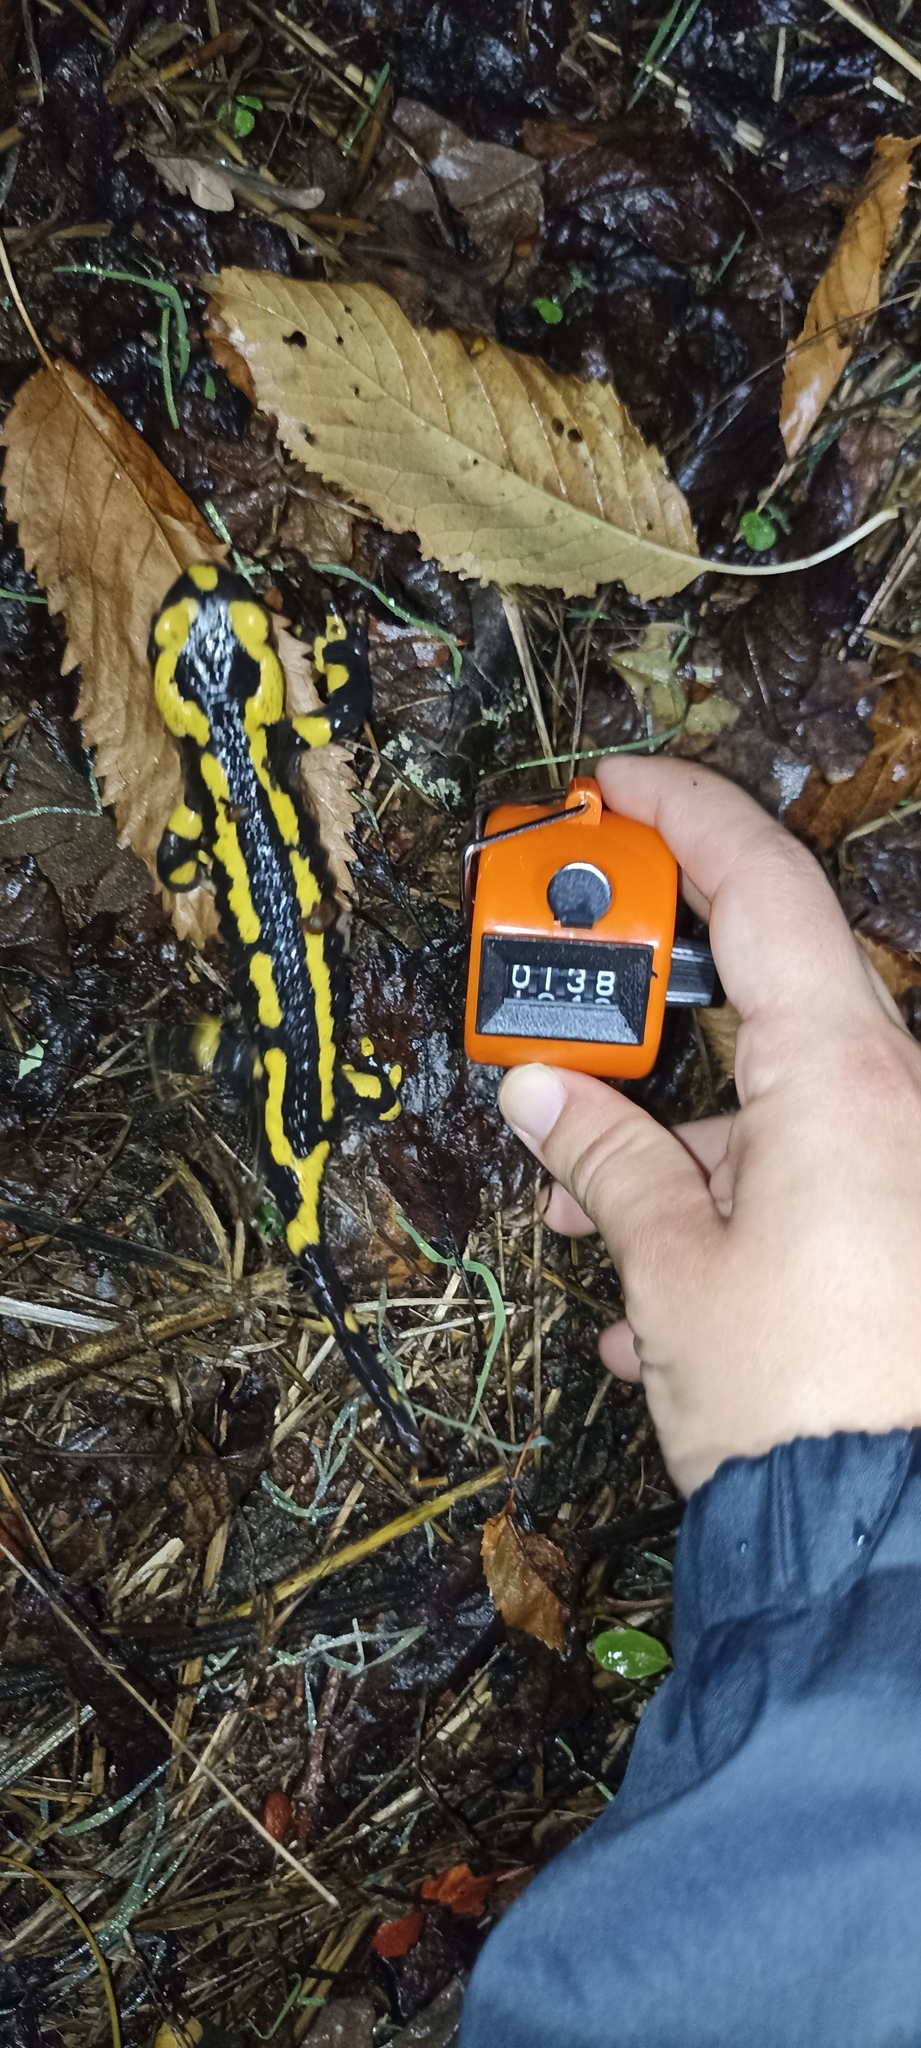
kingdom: Animalia
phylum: Chordata
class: Amphibia
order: Caudata
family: Salamandridae
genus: Salamandra
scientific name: Salamandra salamandra
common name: Fire salamander
